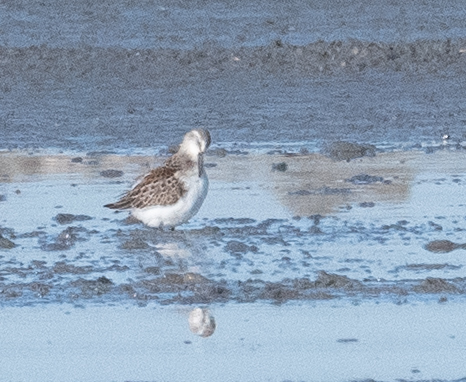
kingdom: Animalia
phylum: Chordata
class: Aves
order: Charadriiformes
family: Scolopacidae
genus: Calidris
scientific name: Calidris mauri
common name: Western sandpiper
